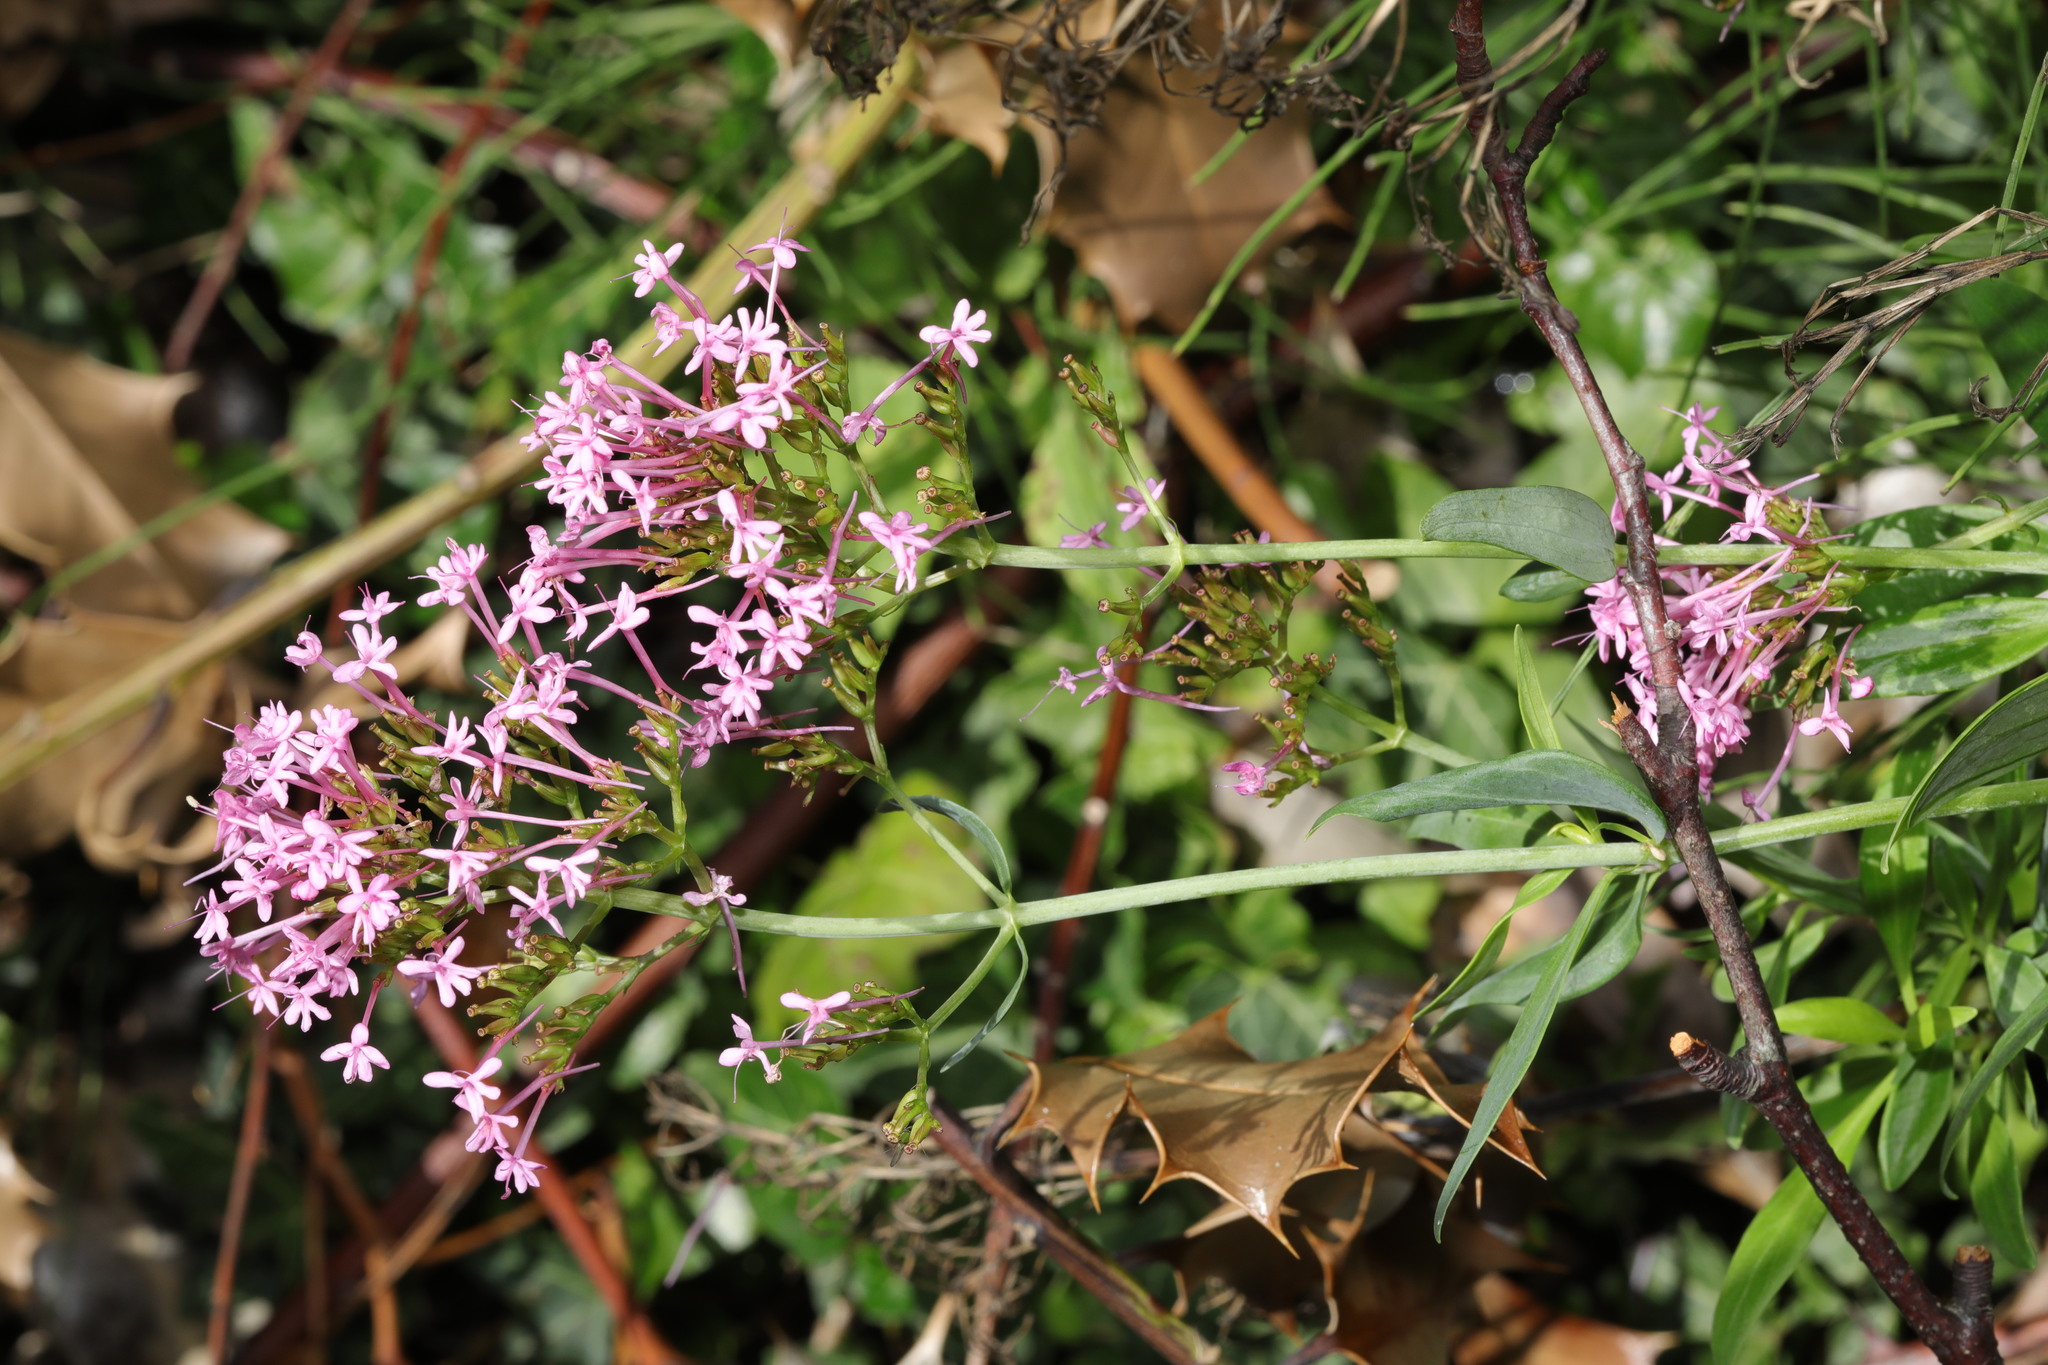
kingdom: Plantae
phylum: Tracheophyta
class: Magnoliopsida
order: Dipsacales
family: Caprifoliaceae
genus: Centranthus
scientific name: Centranthus ruber
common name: Red valerian
